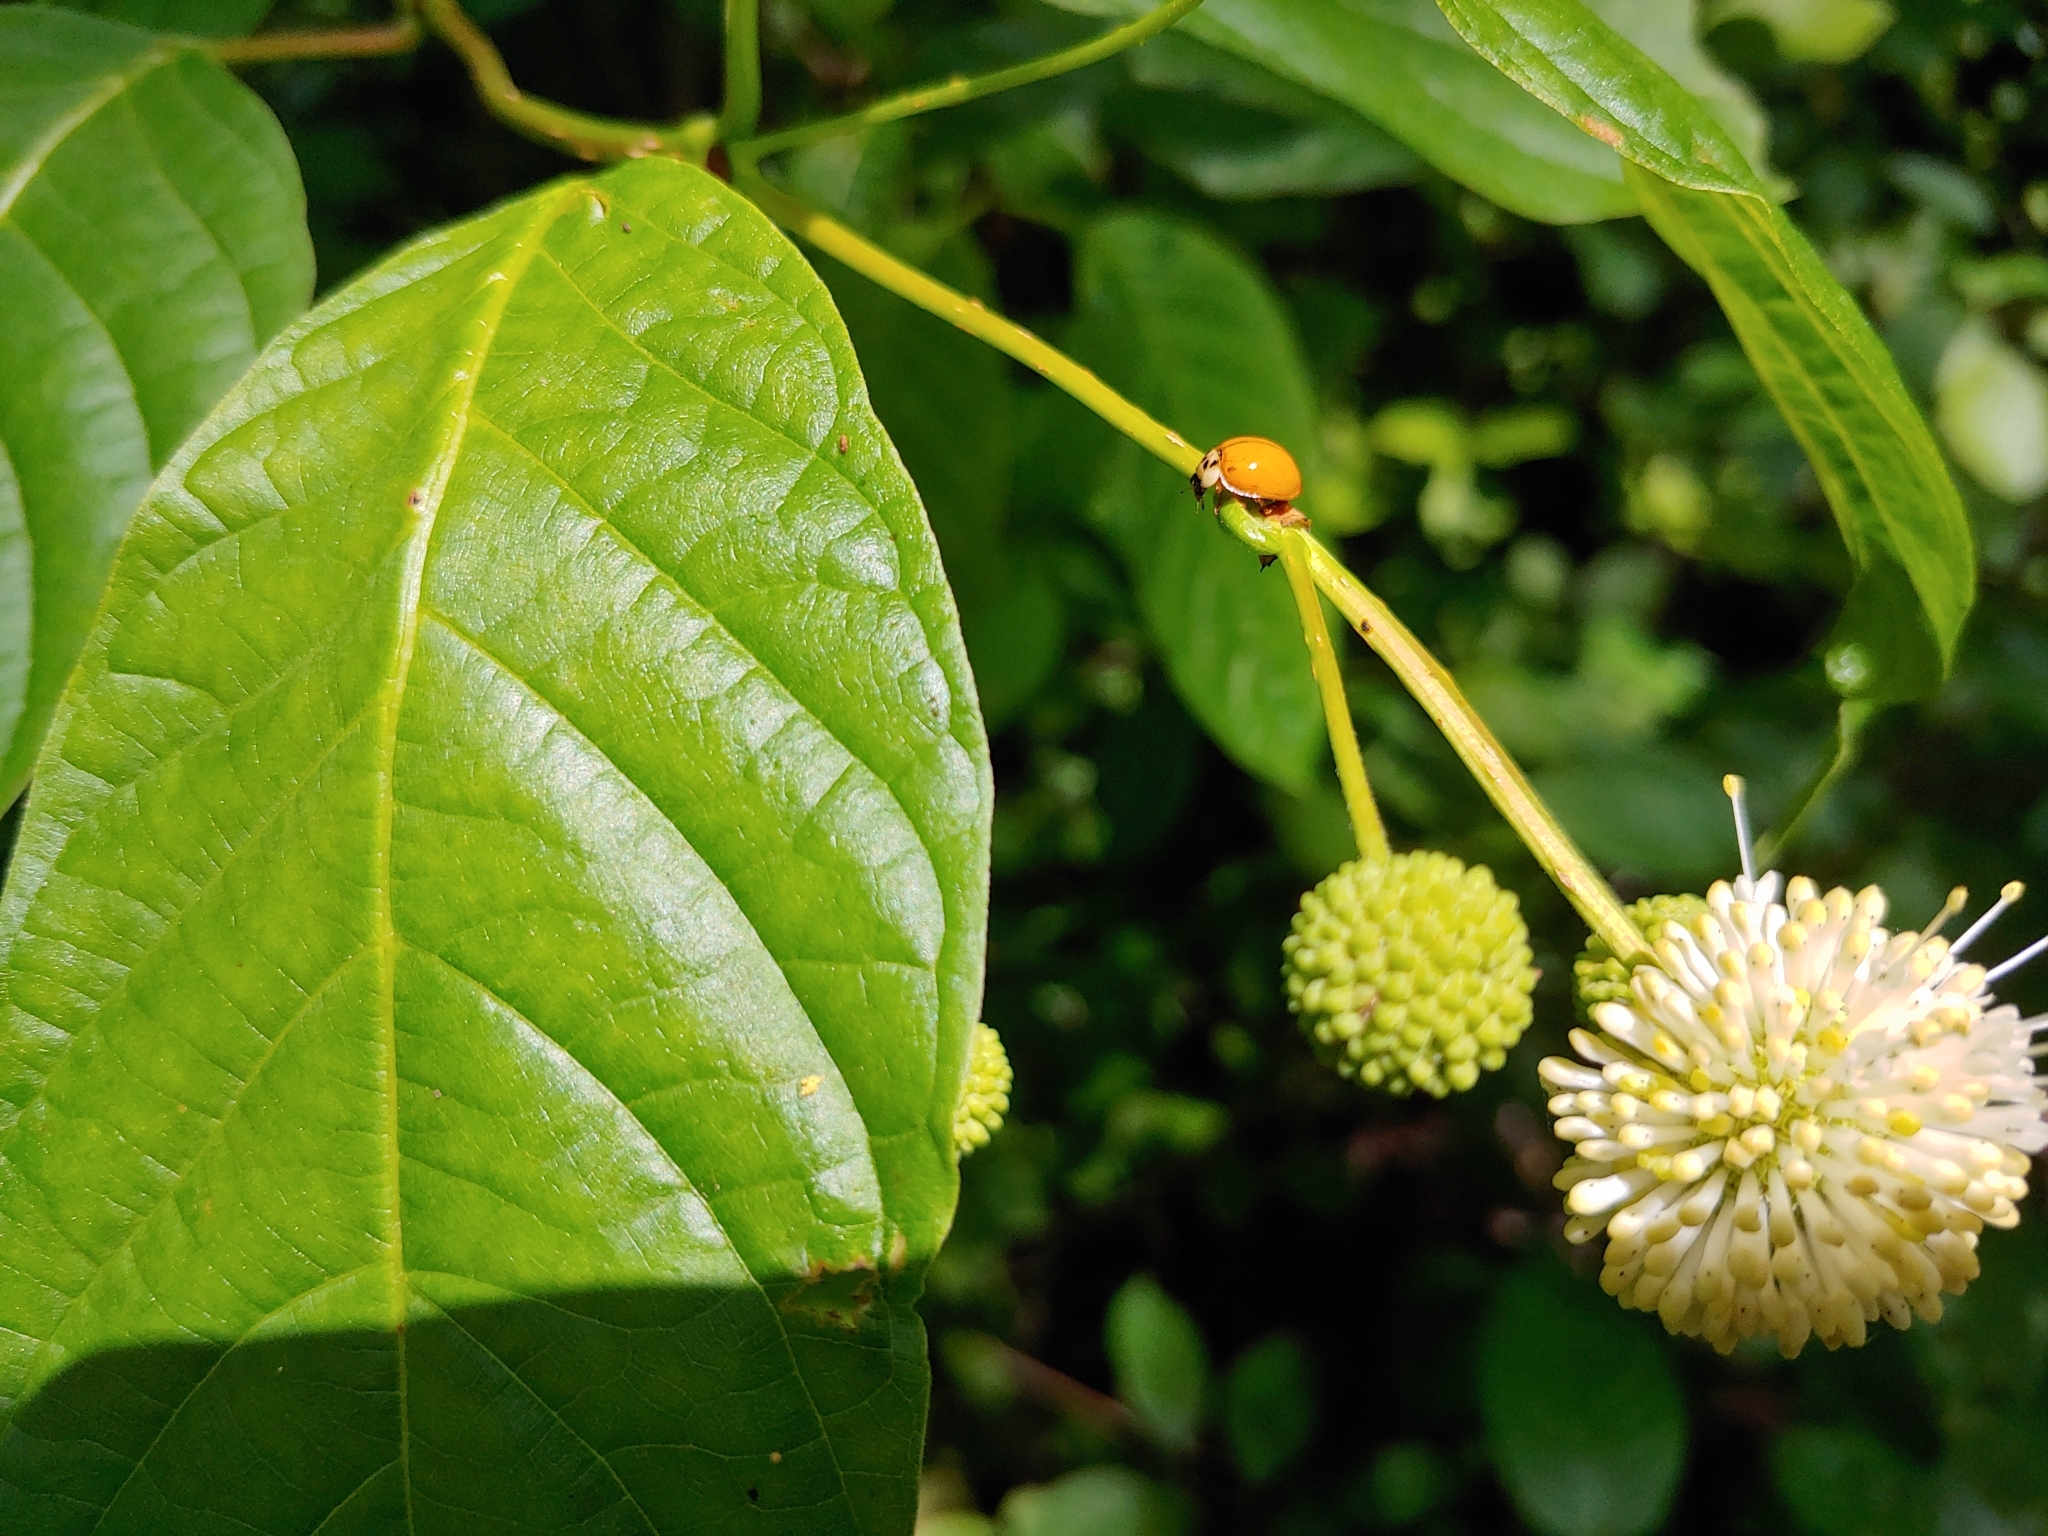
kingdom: Animalia
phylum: Arthropoda
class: Insecta
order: Coleoptera
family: Coccinellidae
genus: Harmonia
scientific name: Harmonia axyridis
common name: Harlequin ladybird
